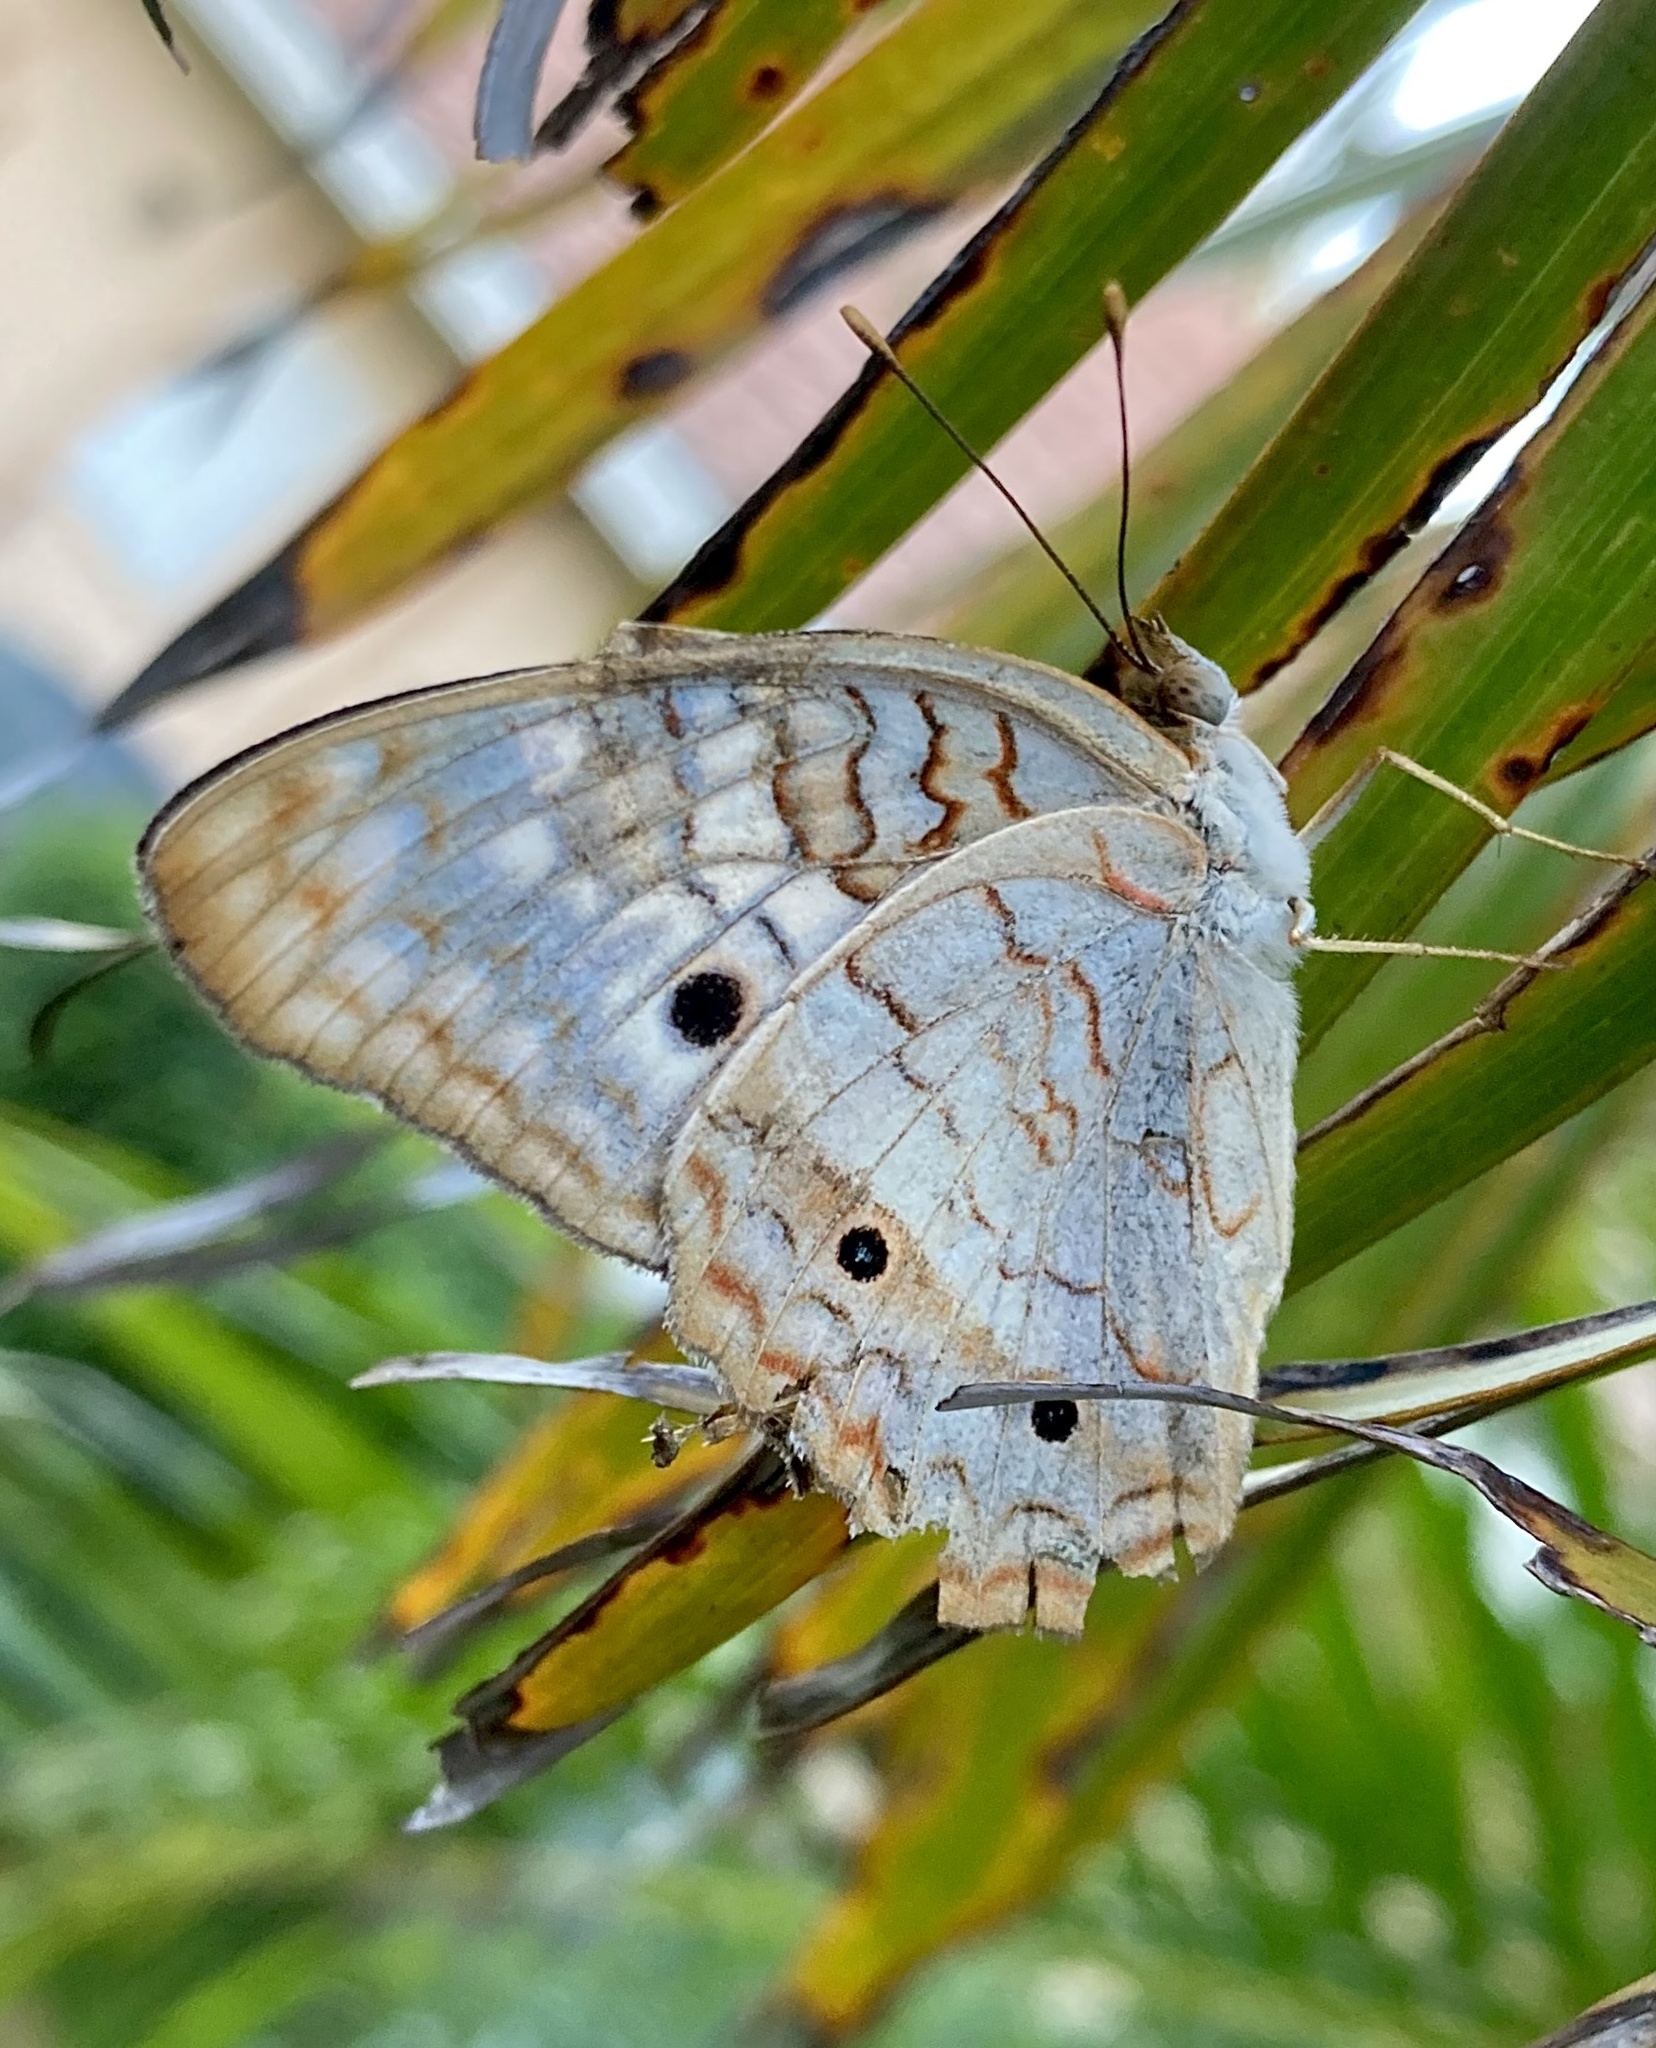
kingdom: Animalia
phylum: Arthropoda
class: Insecta
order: Lepidoptera
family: Nymphalidae
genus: Anartia
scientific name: Anartia jatrophae
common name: White peacock
